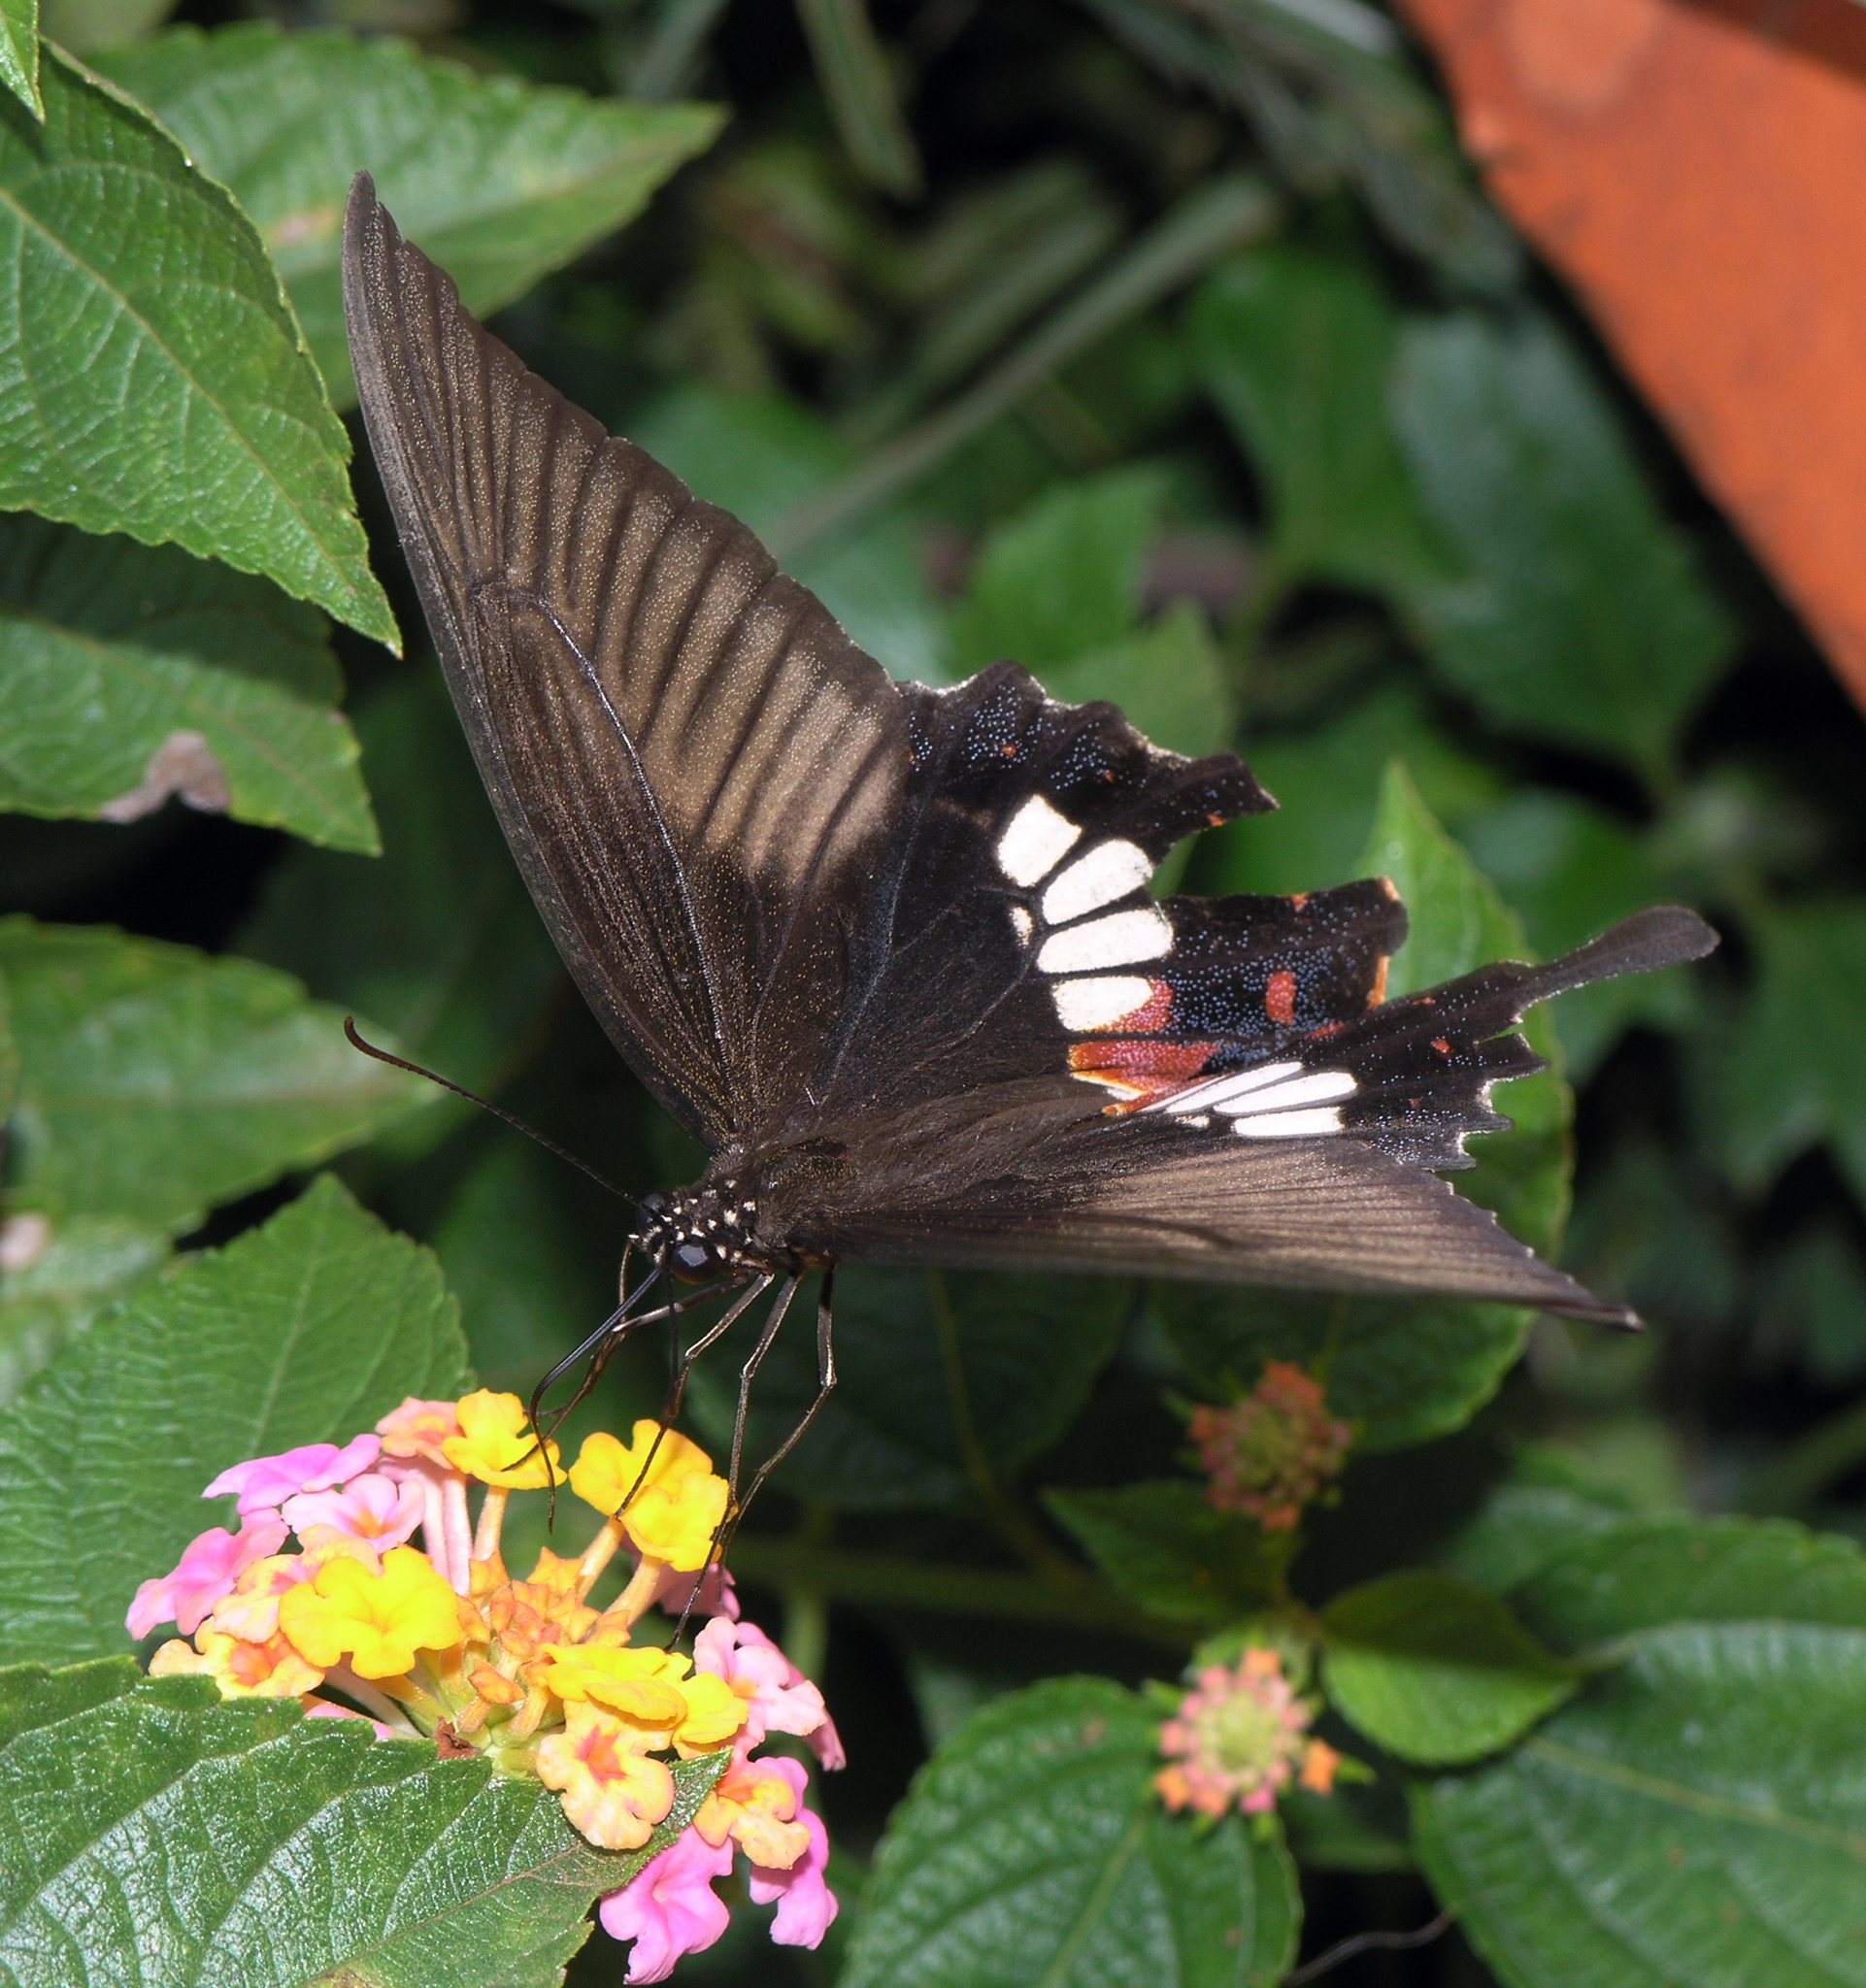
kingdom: Animalia
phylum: Arthropoda
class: Insecta
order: Lepidoptera
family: Papilionidae
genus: Papilio
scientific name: Papilio polytes
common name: Common mormon
